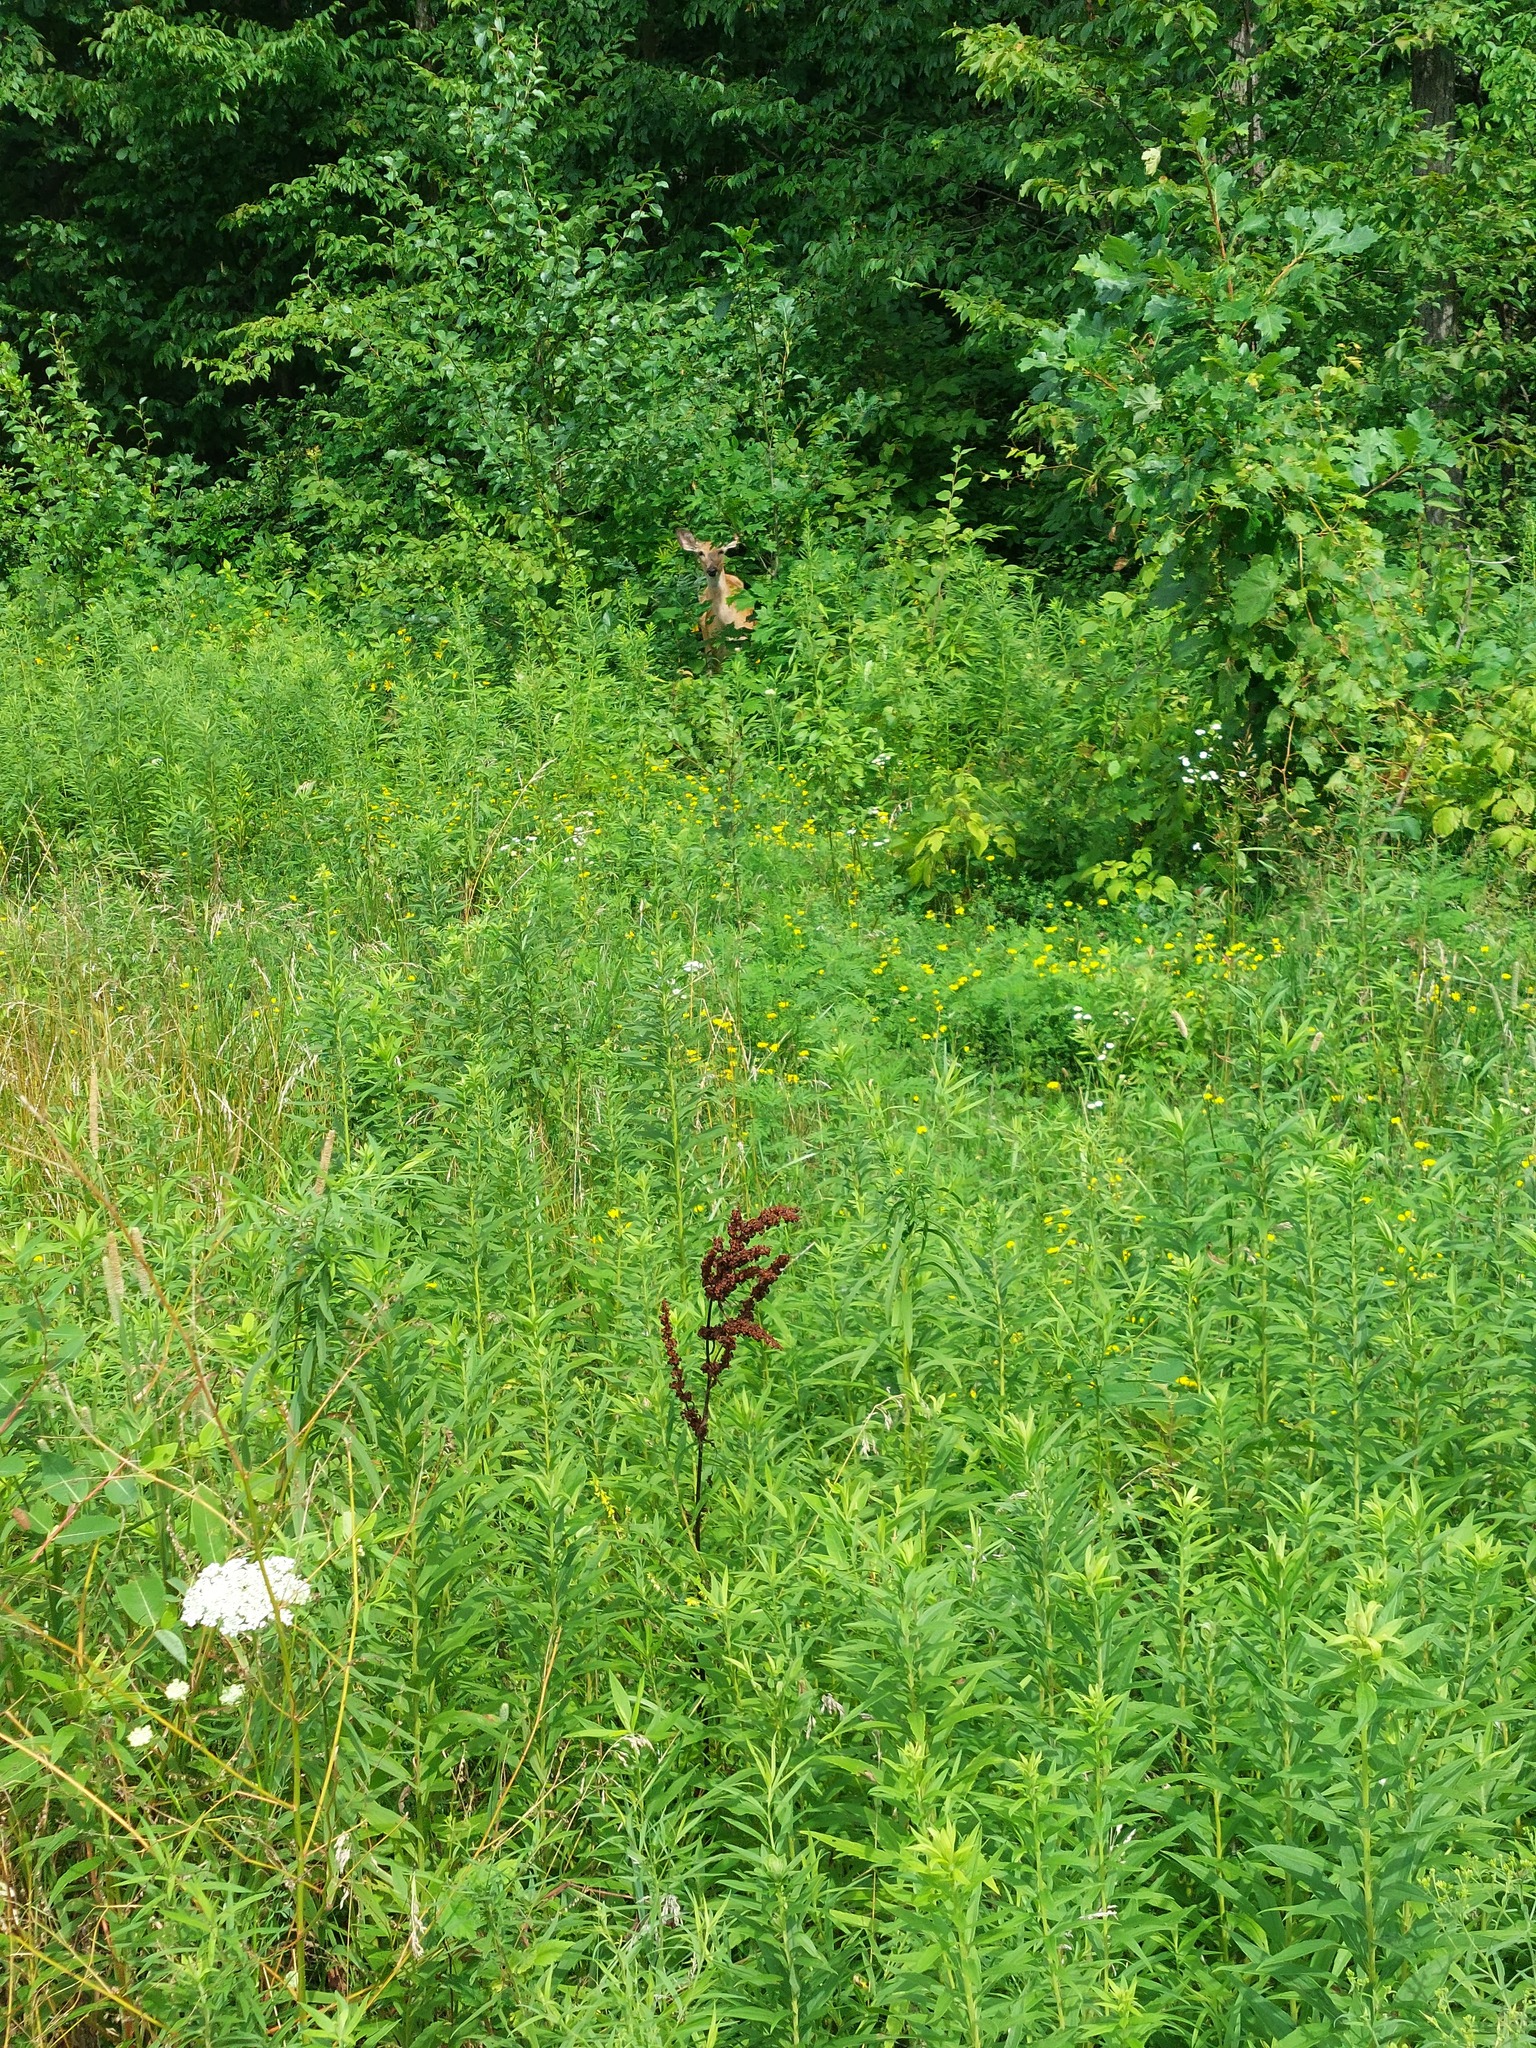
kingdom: Animalia
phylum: Chordata
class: Mammalia
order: Artiodactyla
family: Cervidae
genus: Odocoileus
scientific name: Odocoileus virginianus
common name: White-tailed deer
